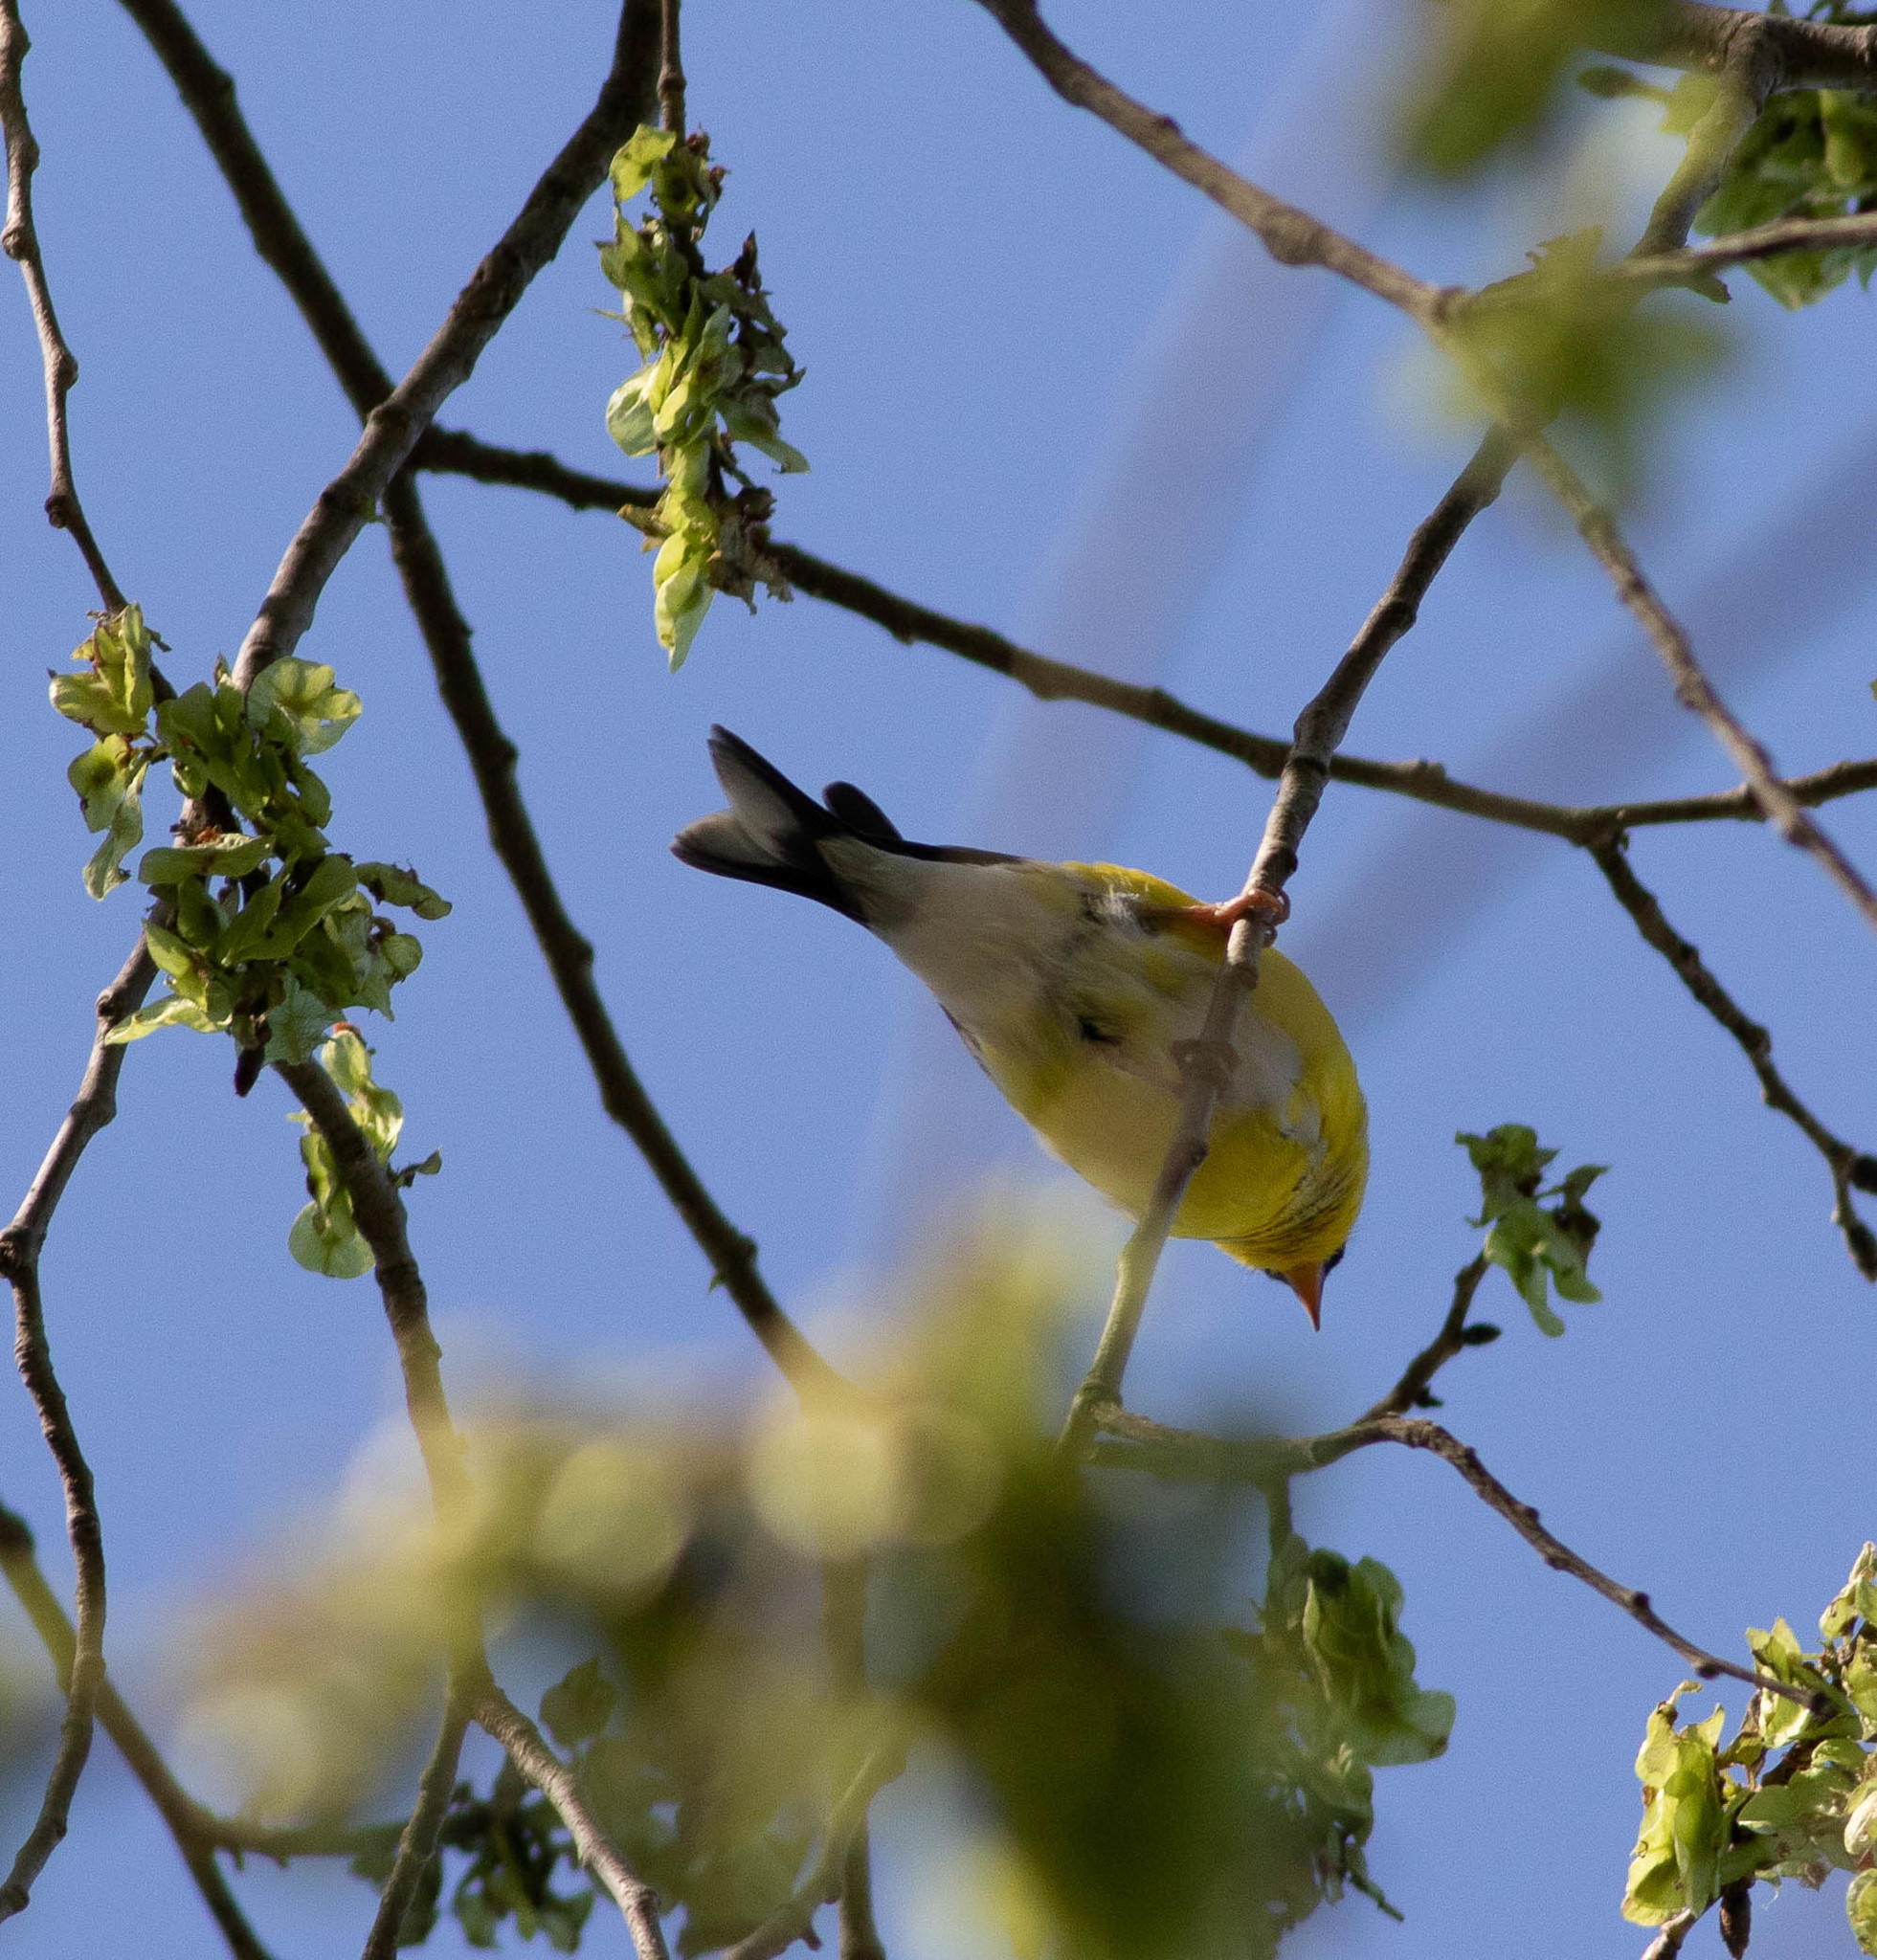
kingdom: Animalia
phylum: Chordata
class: Aves
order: Passeriformes
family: Fringillidae
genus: Spinus
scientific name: Spinus tristis
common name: American goldfinch
